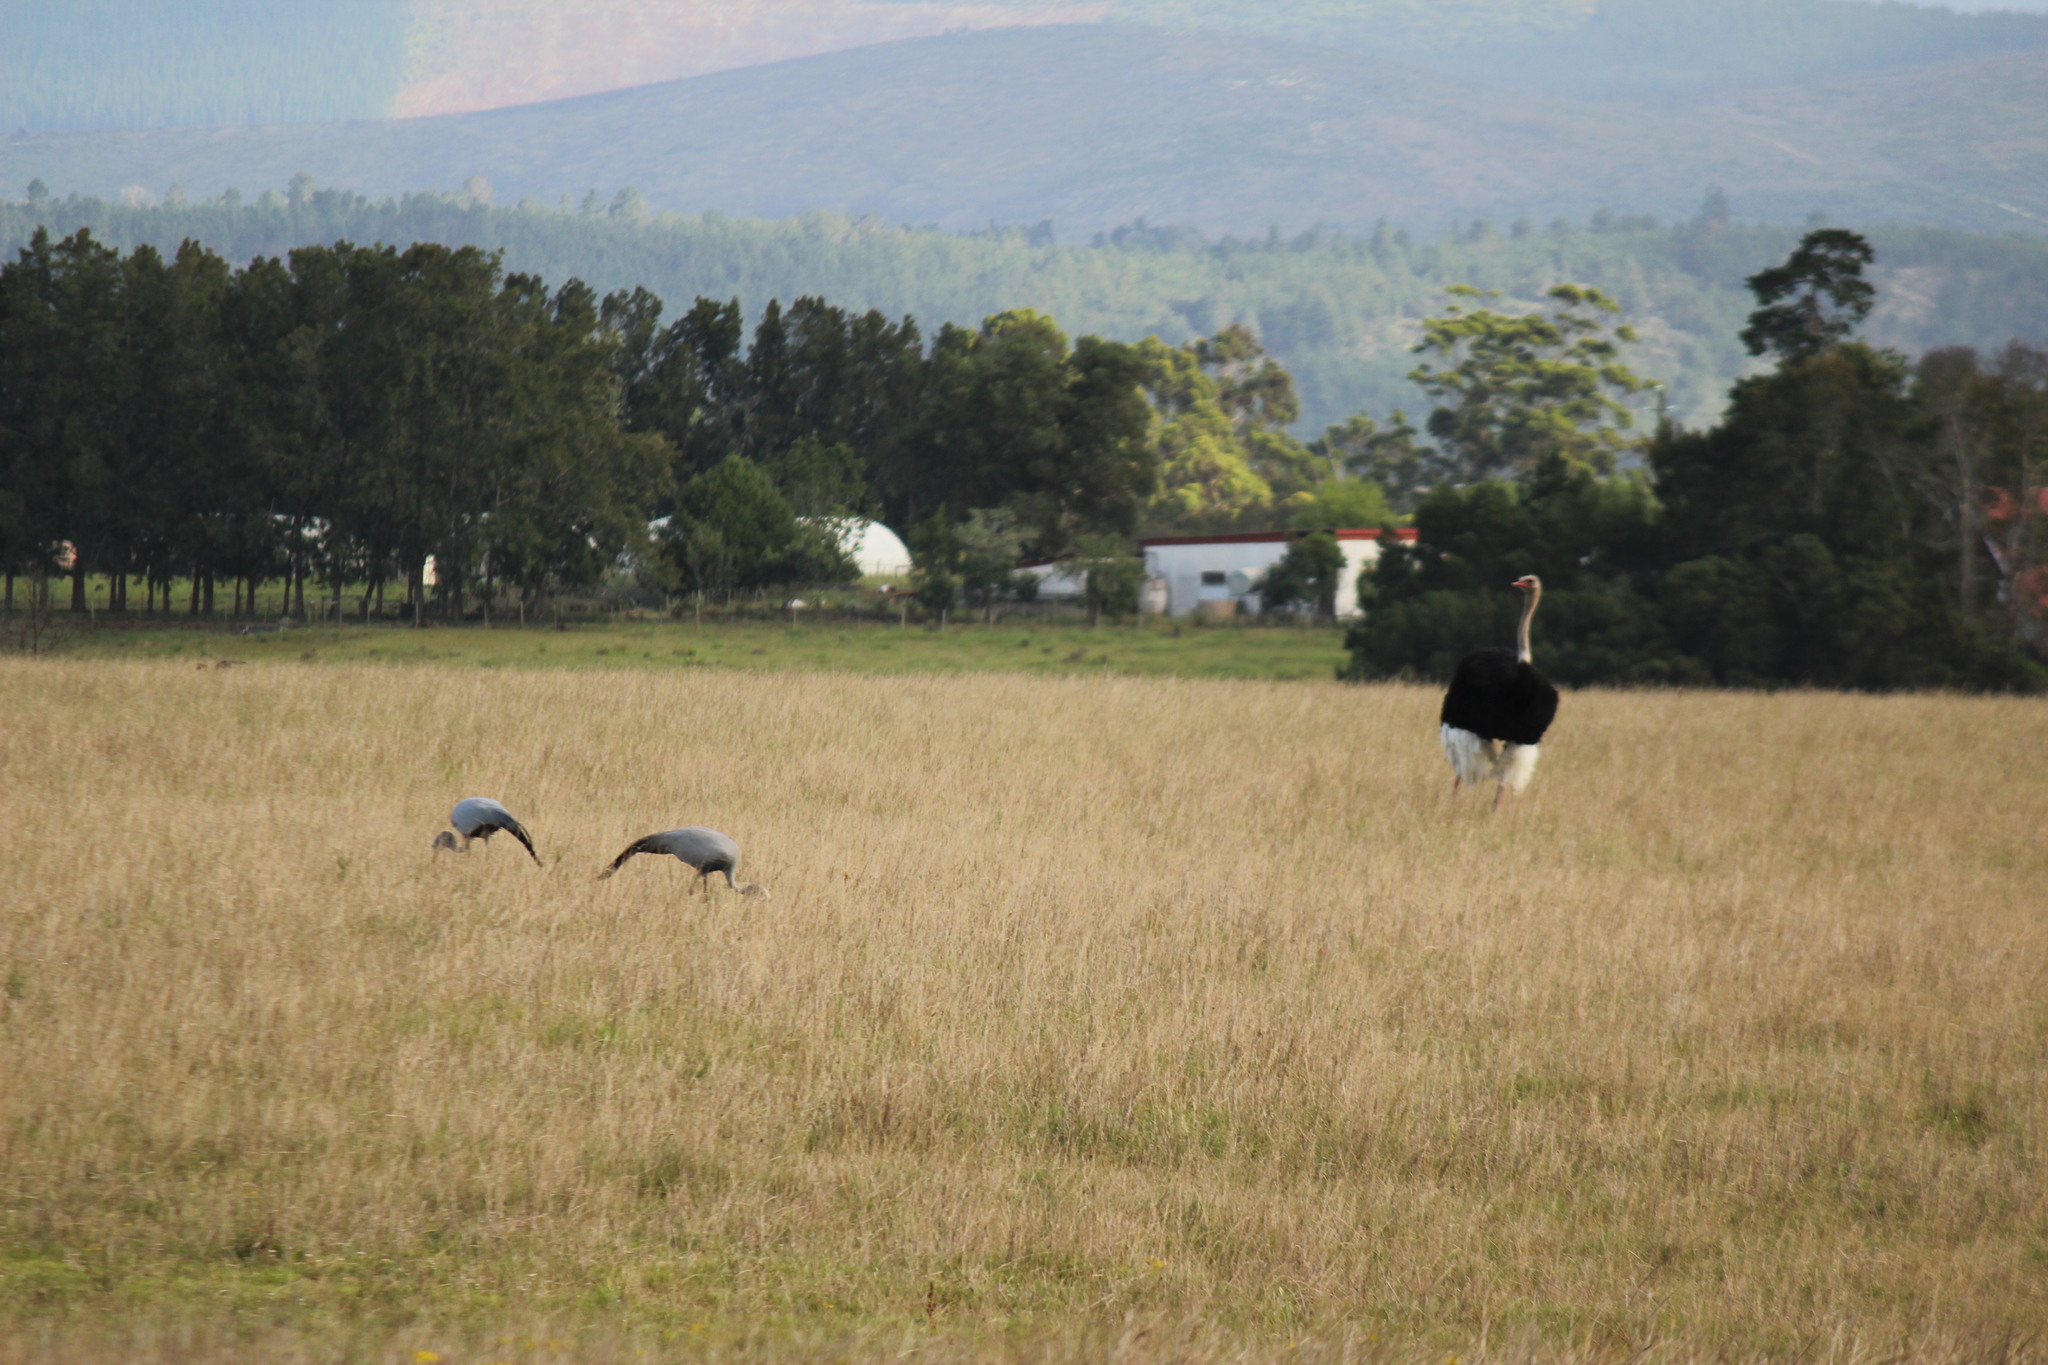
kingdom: Animalia
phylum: Chordata
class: Aves
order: Gruiformes
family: Gruidae
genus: Anthropoides
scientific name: Anthropoides paradiseus
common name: Blue crane
